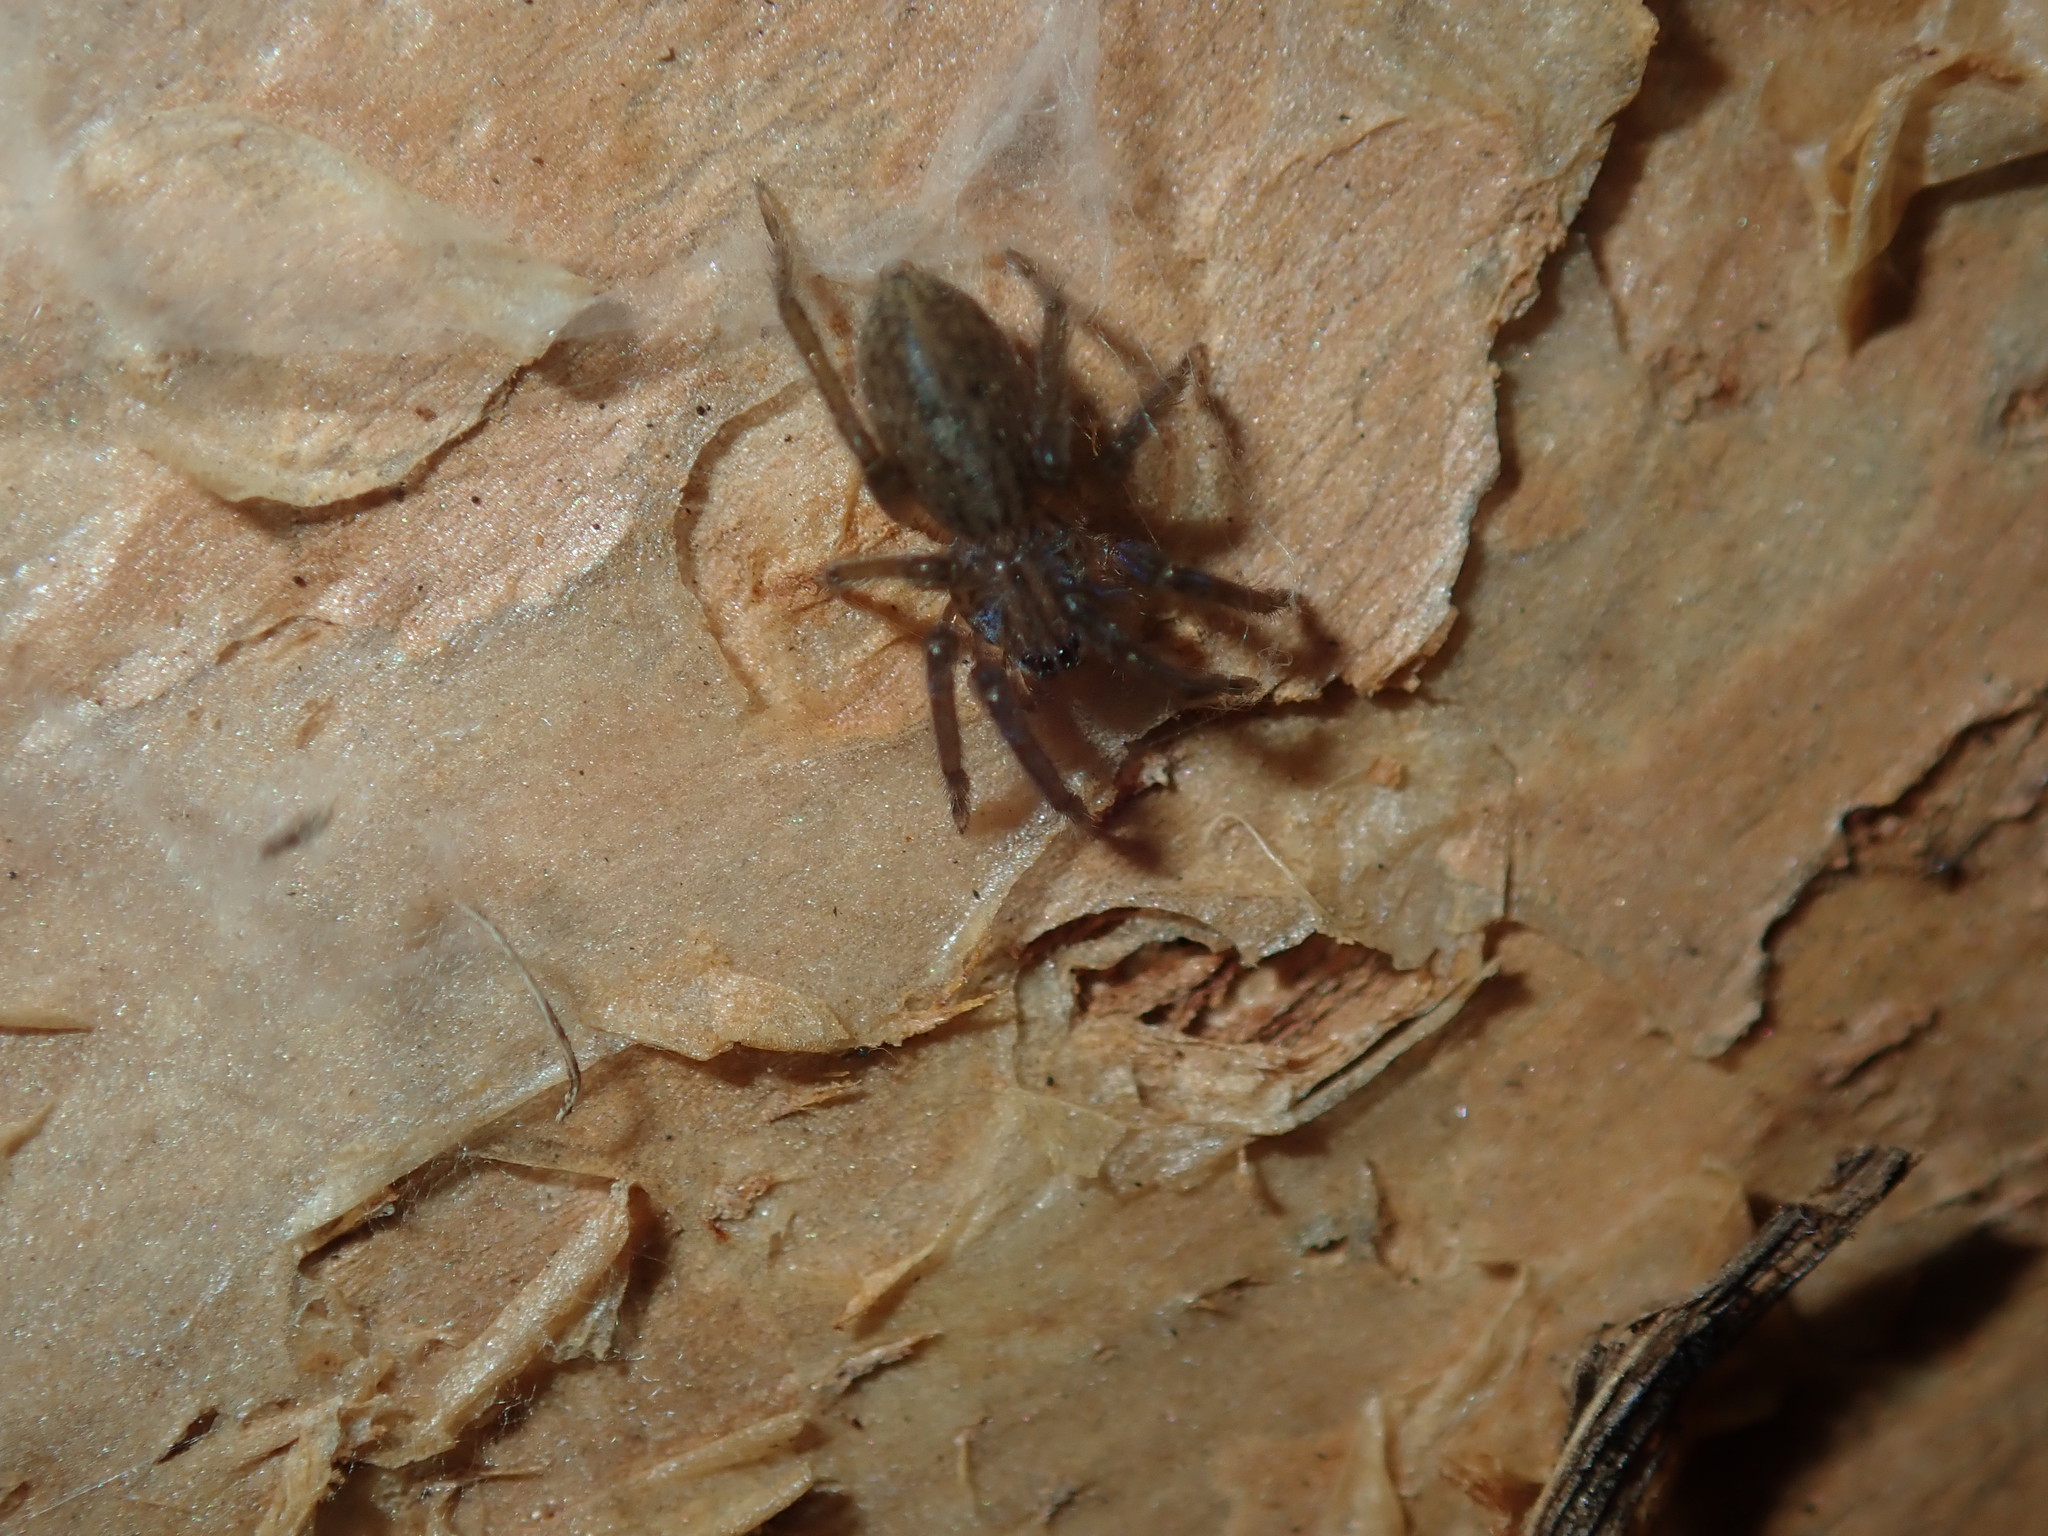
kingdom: Animalia
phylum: Arthropoda
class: Arachnida
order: Araneae
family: Miturgidae
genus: Mituliodon
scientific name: Mituliodon tarantulinus
